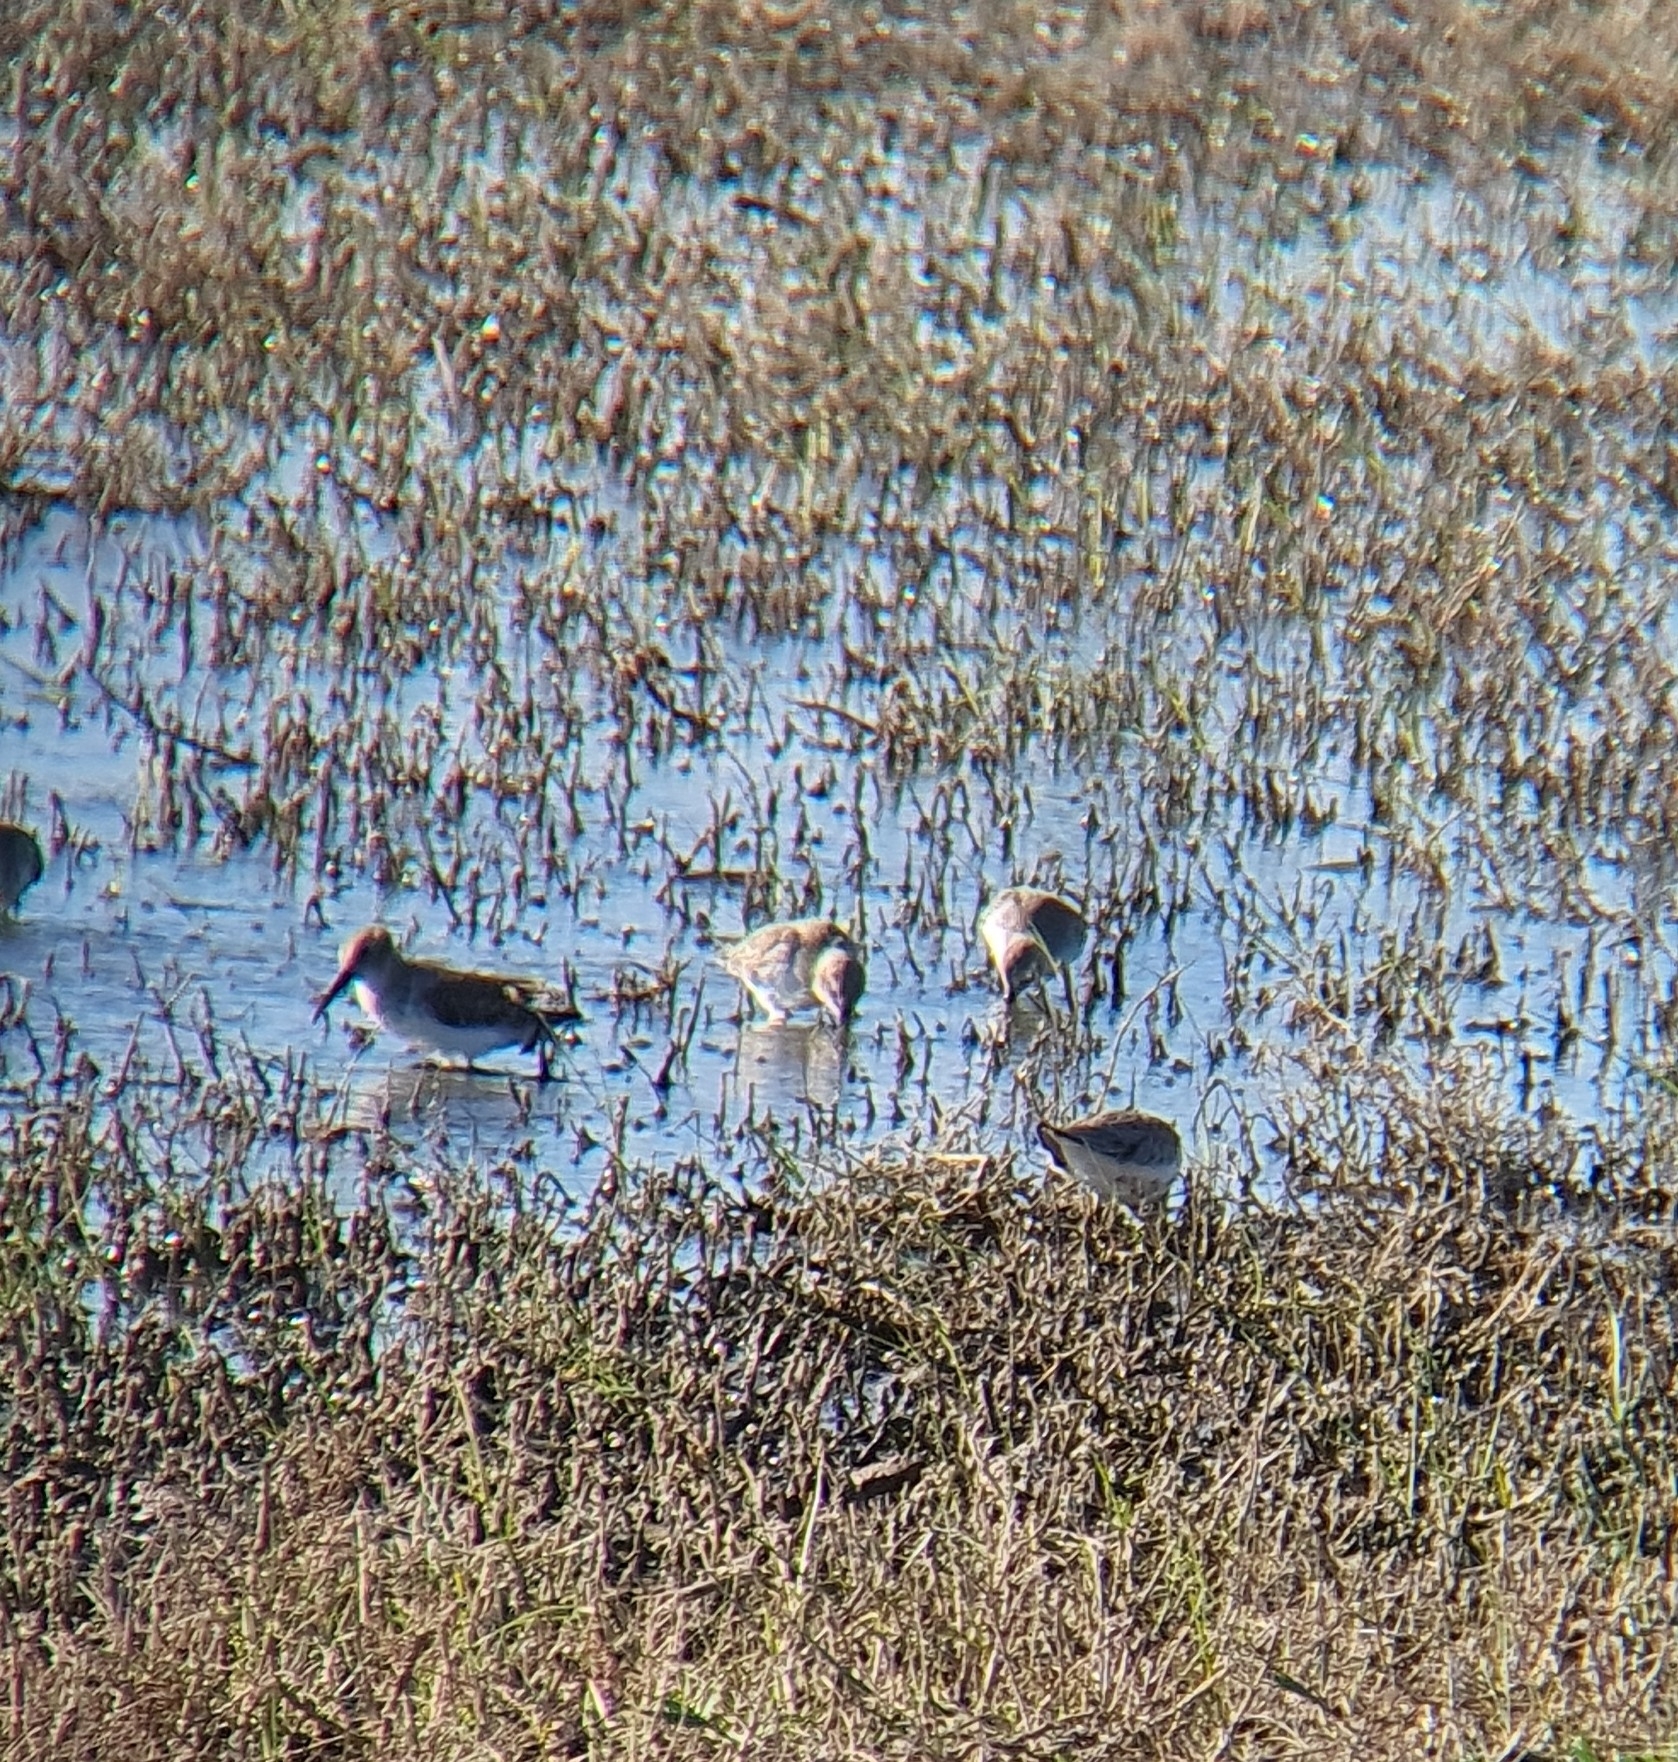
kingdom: Animalia
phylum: Chordata
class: Aves
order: Charadriiformes
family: Scolopacidae
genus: Calidris
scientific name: Calidris alpina
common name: Dunlin
